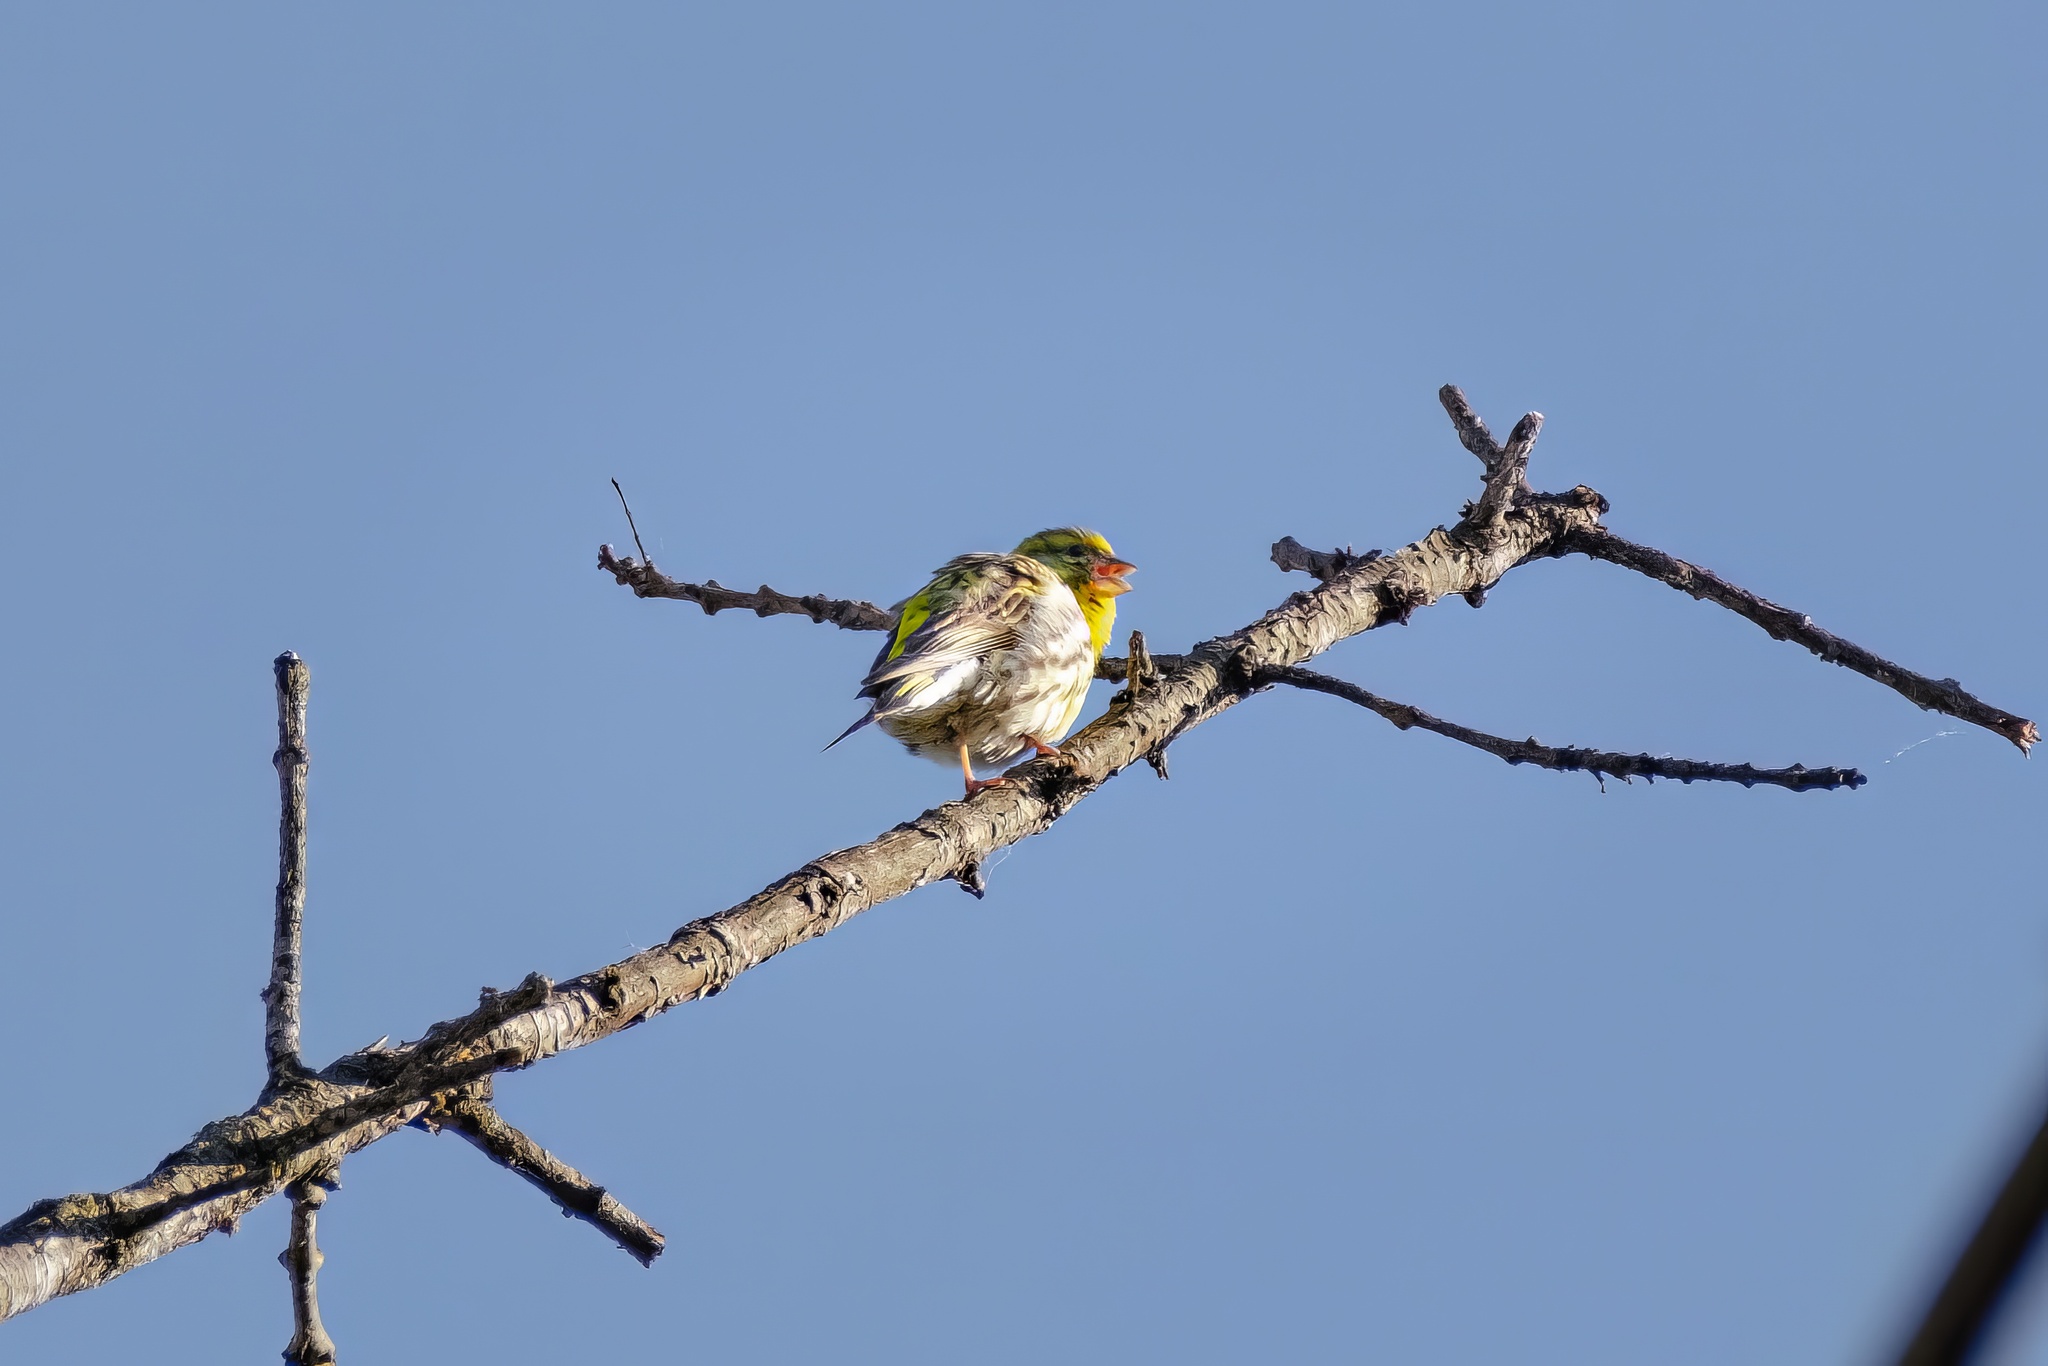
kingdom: Animalia
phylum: Chordata
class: Aves
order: Passeriformes
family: Fringillidae
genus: Serinus
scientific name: Serinus serinus
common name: European serin
